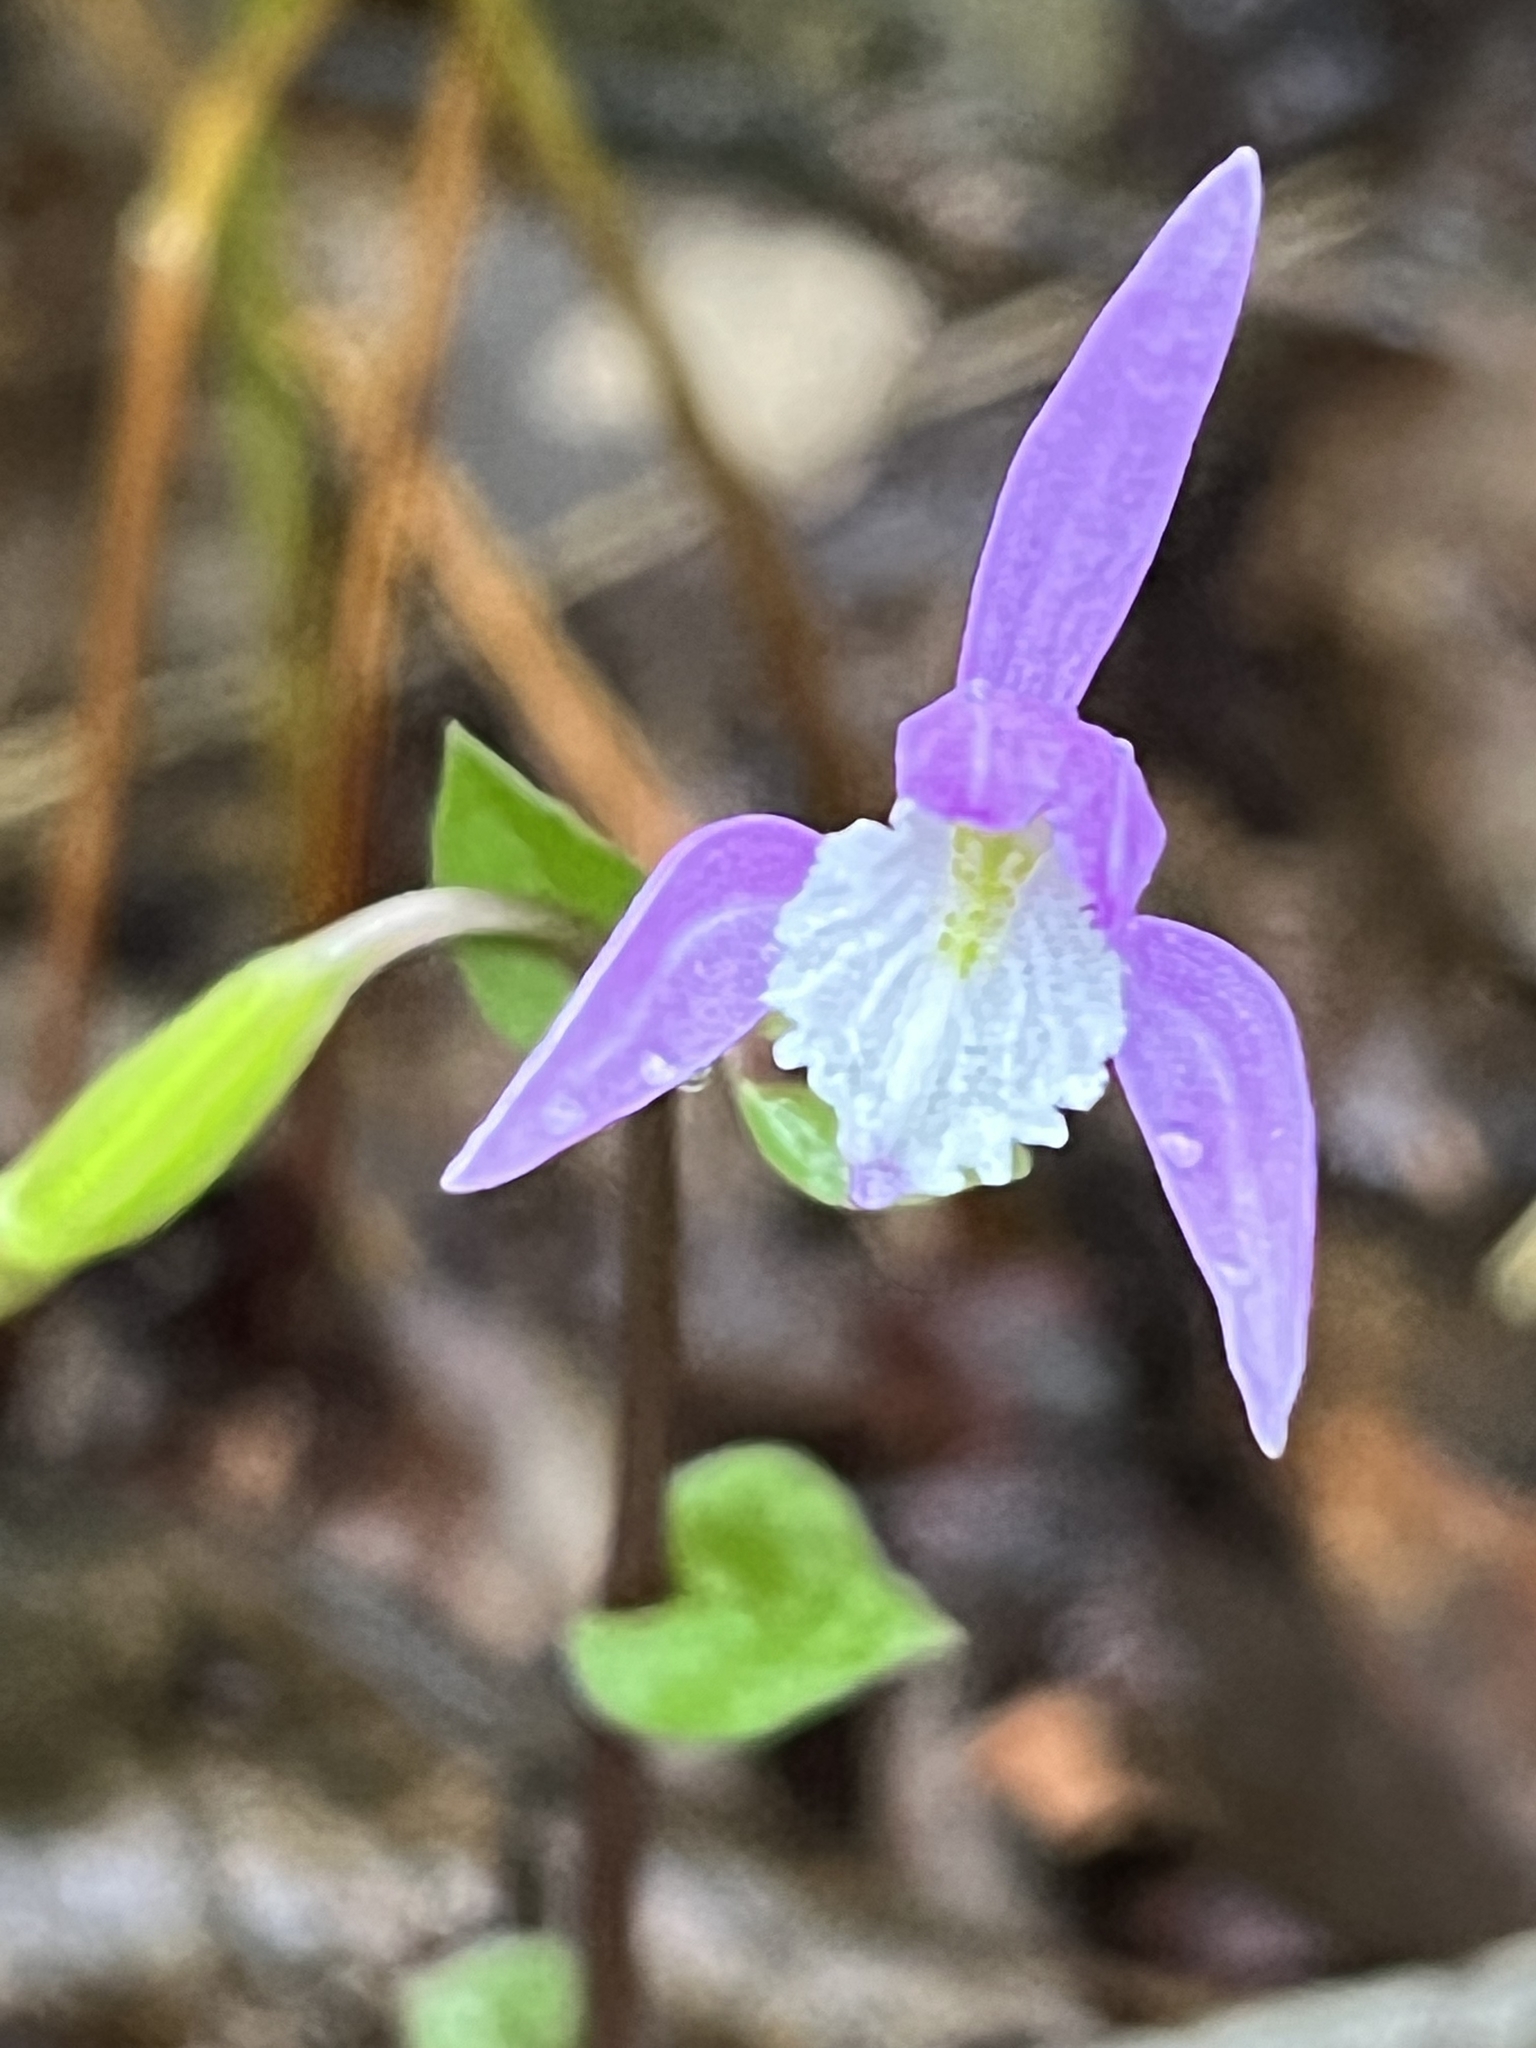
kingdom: Plantae
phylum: Tracheophyta
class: Liliopsida
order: Asparagales
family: Orchidaceae
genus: Triphora
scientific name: Triphora trianthophoros
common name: Three birds orchid
